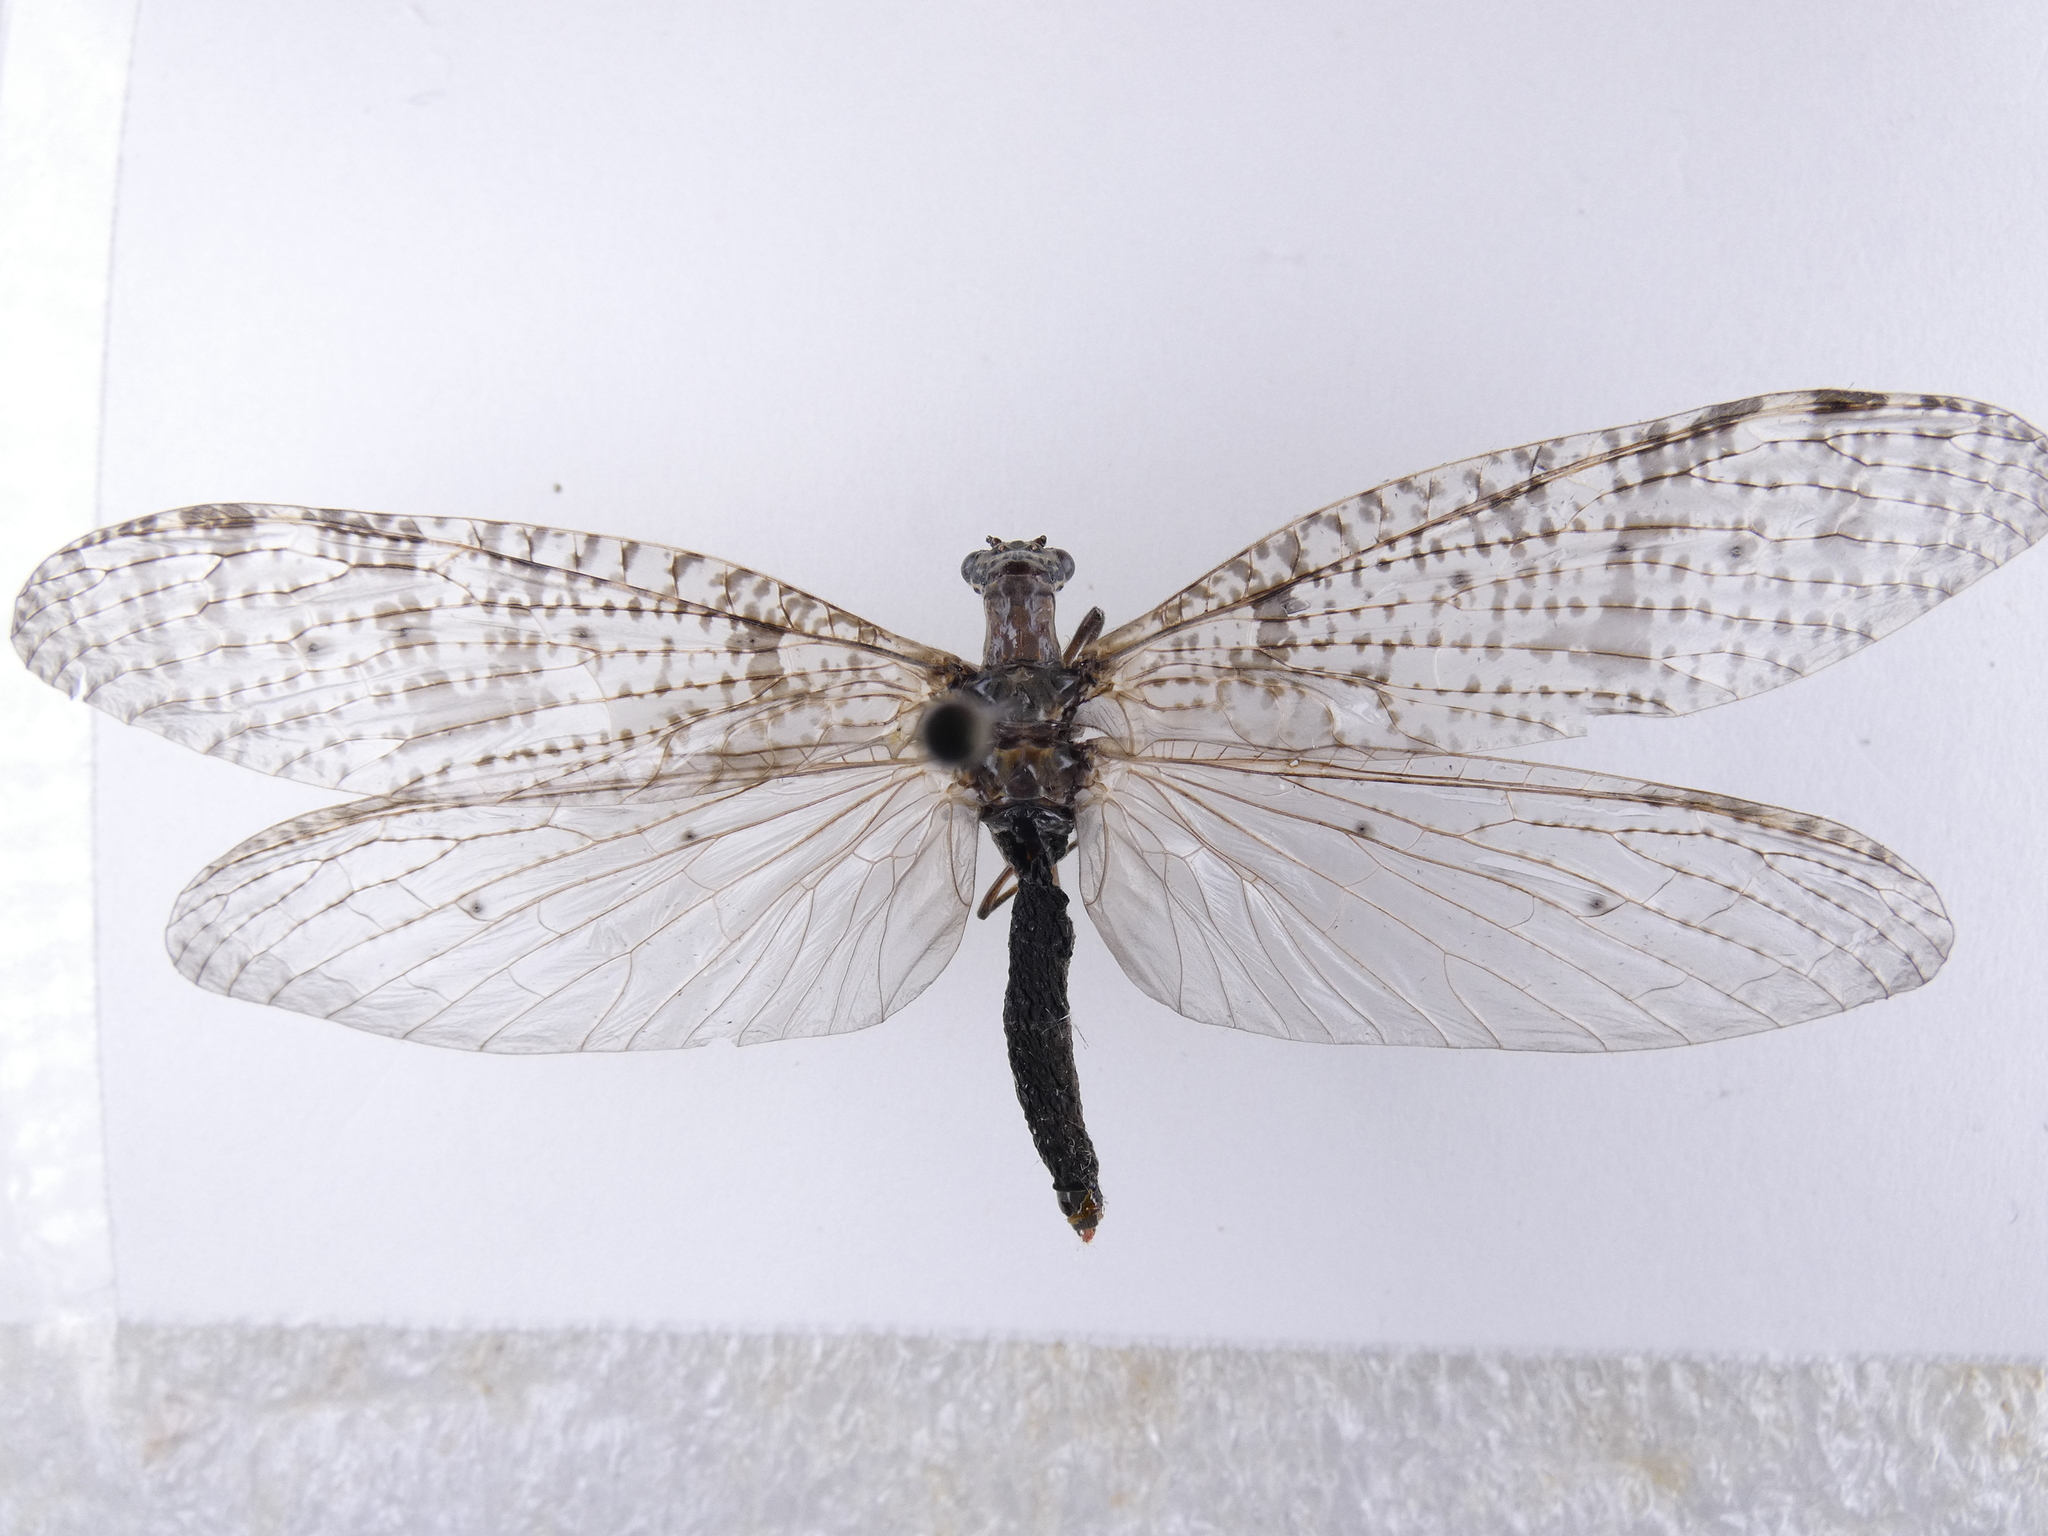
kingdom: Animalia
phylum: Arthropoda
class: Insecta
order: Megaloptera
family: Corydalidae
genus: Archichauliodes
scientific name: Archichauliodes diversus
